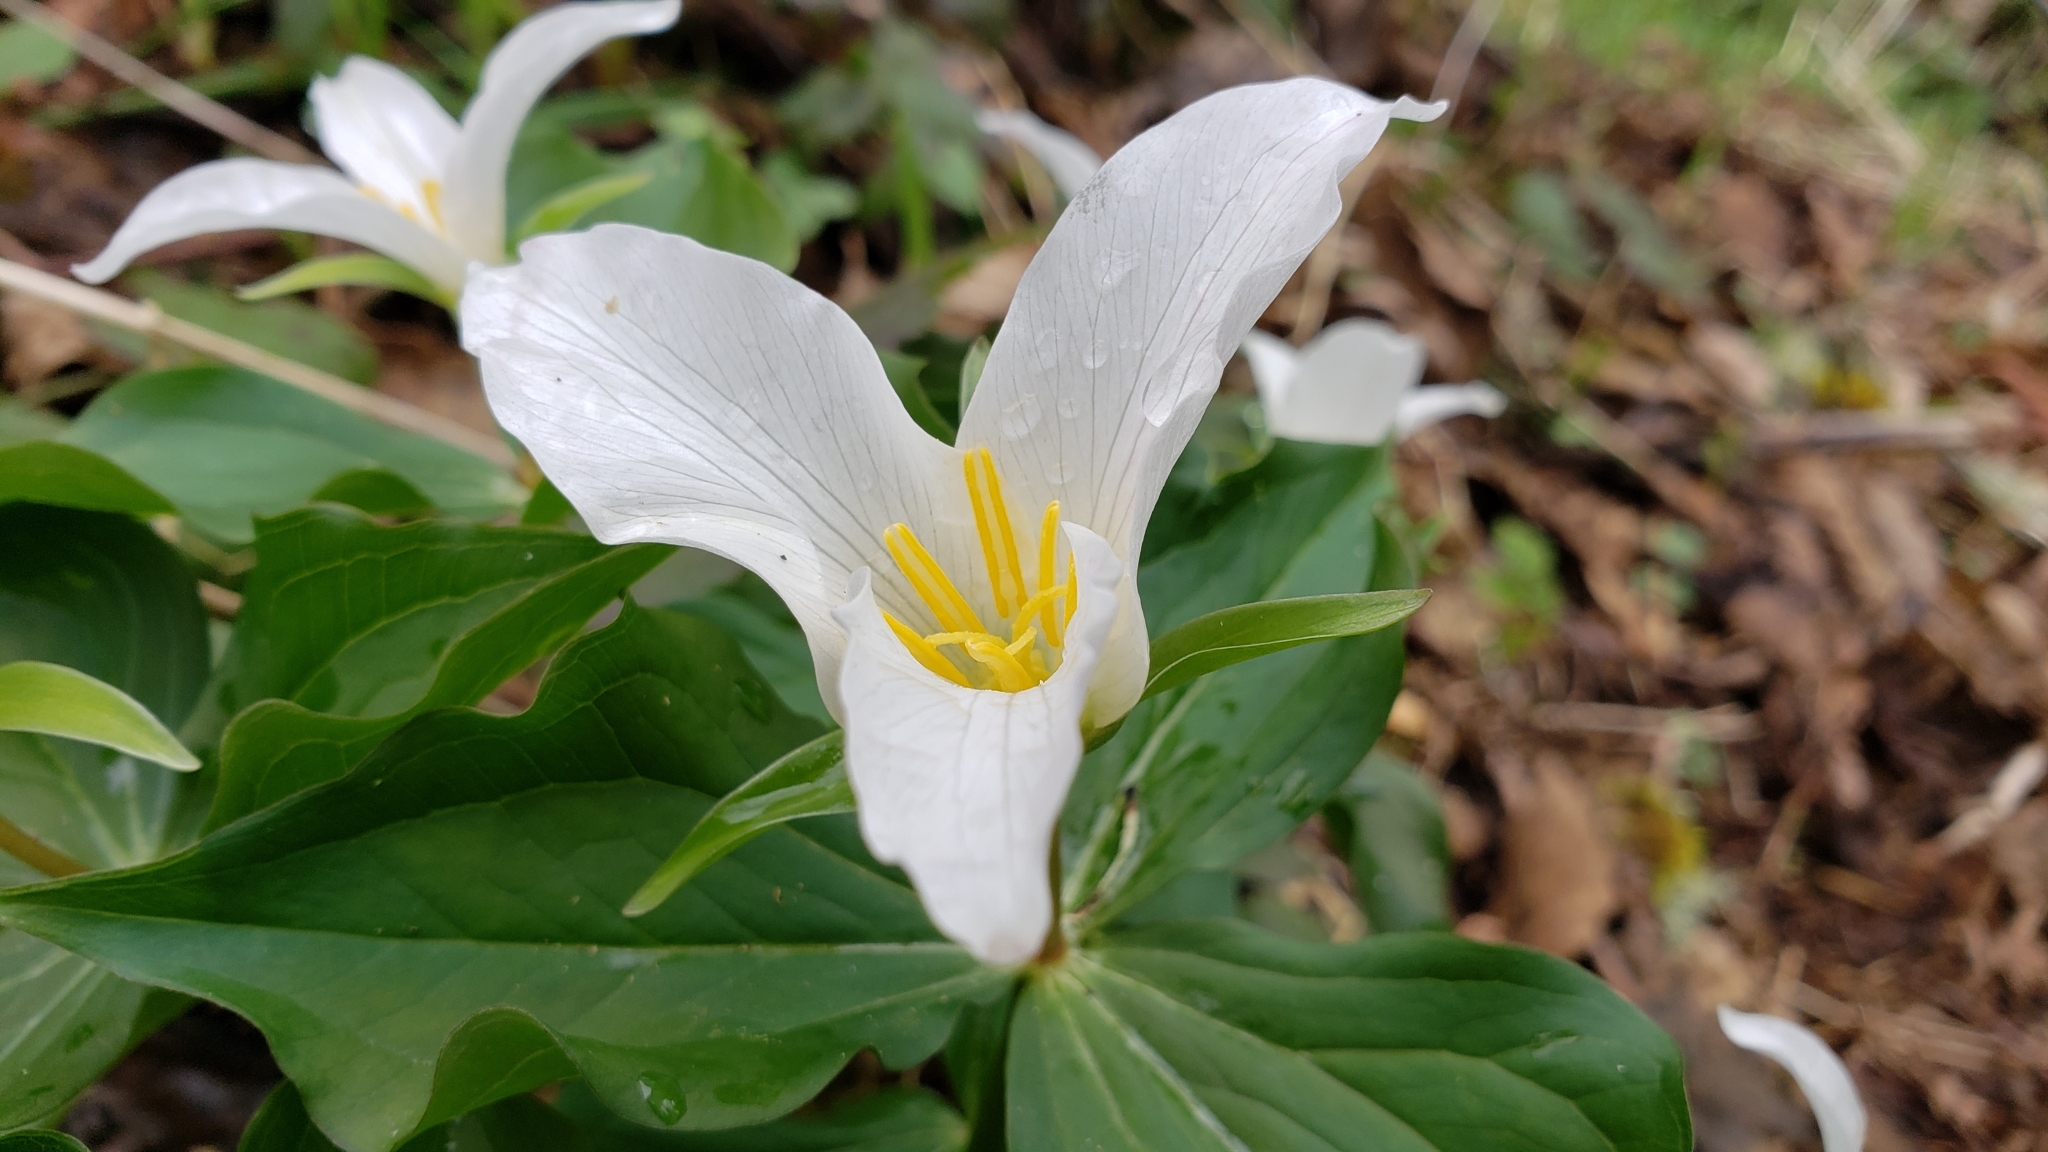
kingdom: Plantae
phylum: Tracheophyta
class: Liliopsida
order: Liliales
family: Melanthiaceae
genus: Trillium
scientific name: Trillium ovatum
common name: Pacific trillium
